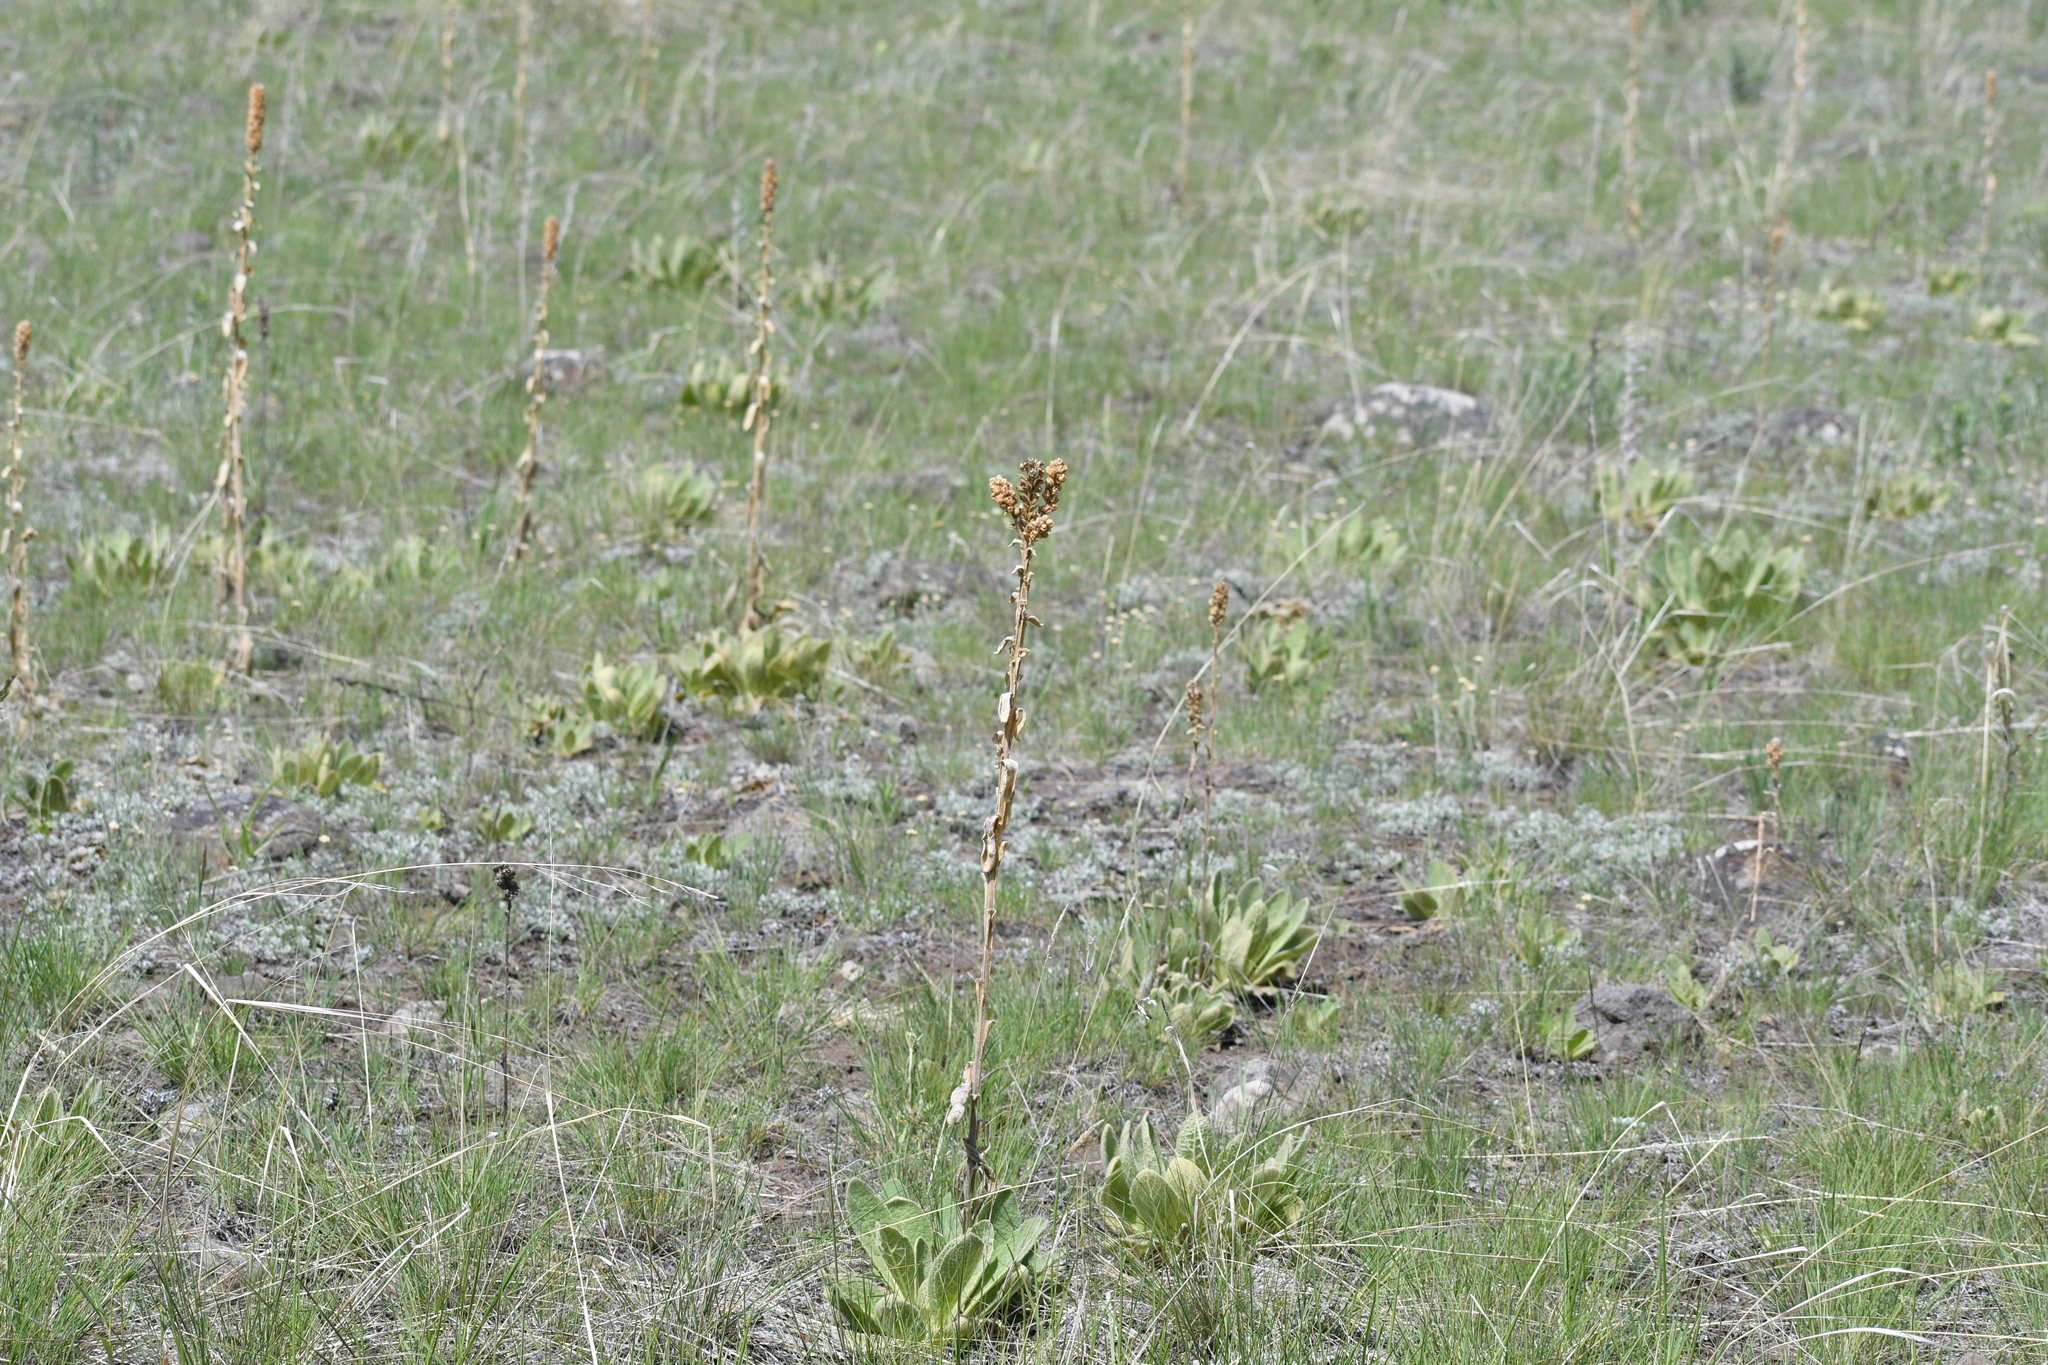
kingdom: Plantae
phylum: Tracheophyta
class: Magnoliopsida
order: Lamiales
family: Scrophulariaceae
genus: Verbascum
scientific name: Verbascum thapsus
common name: Common mullein
